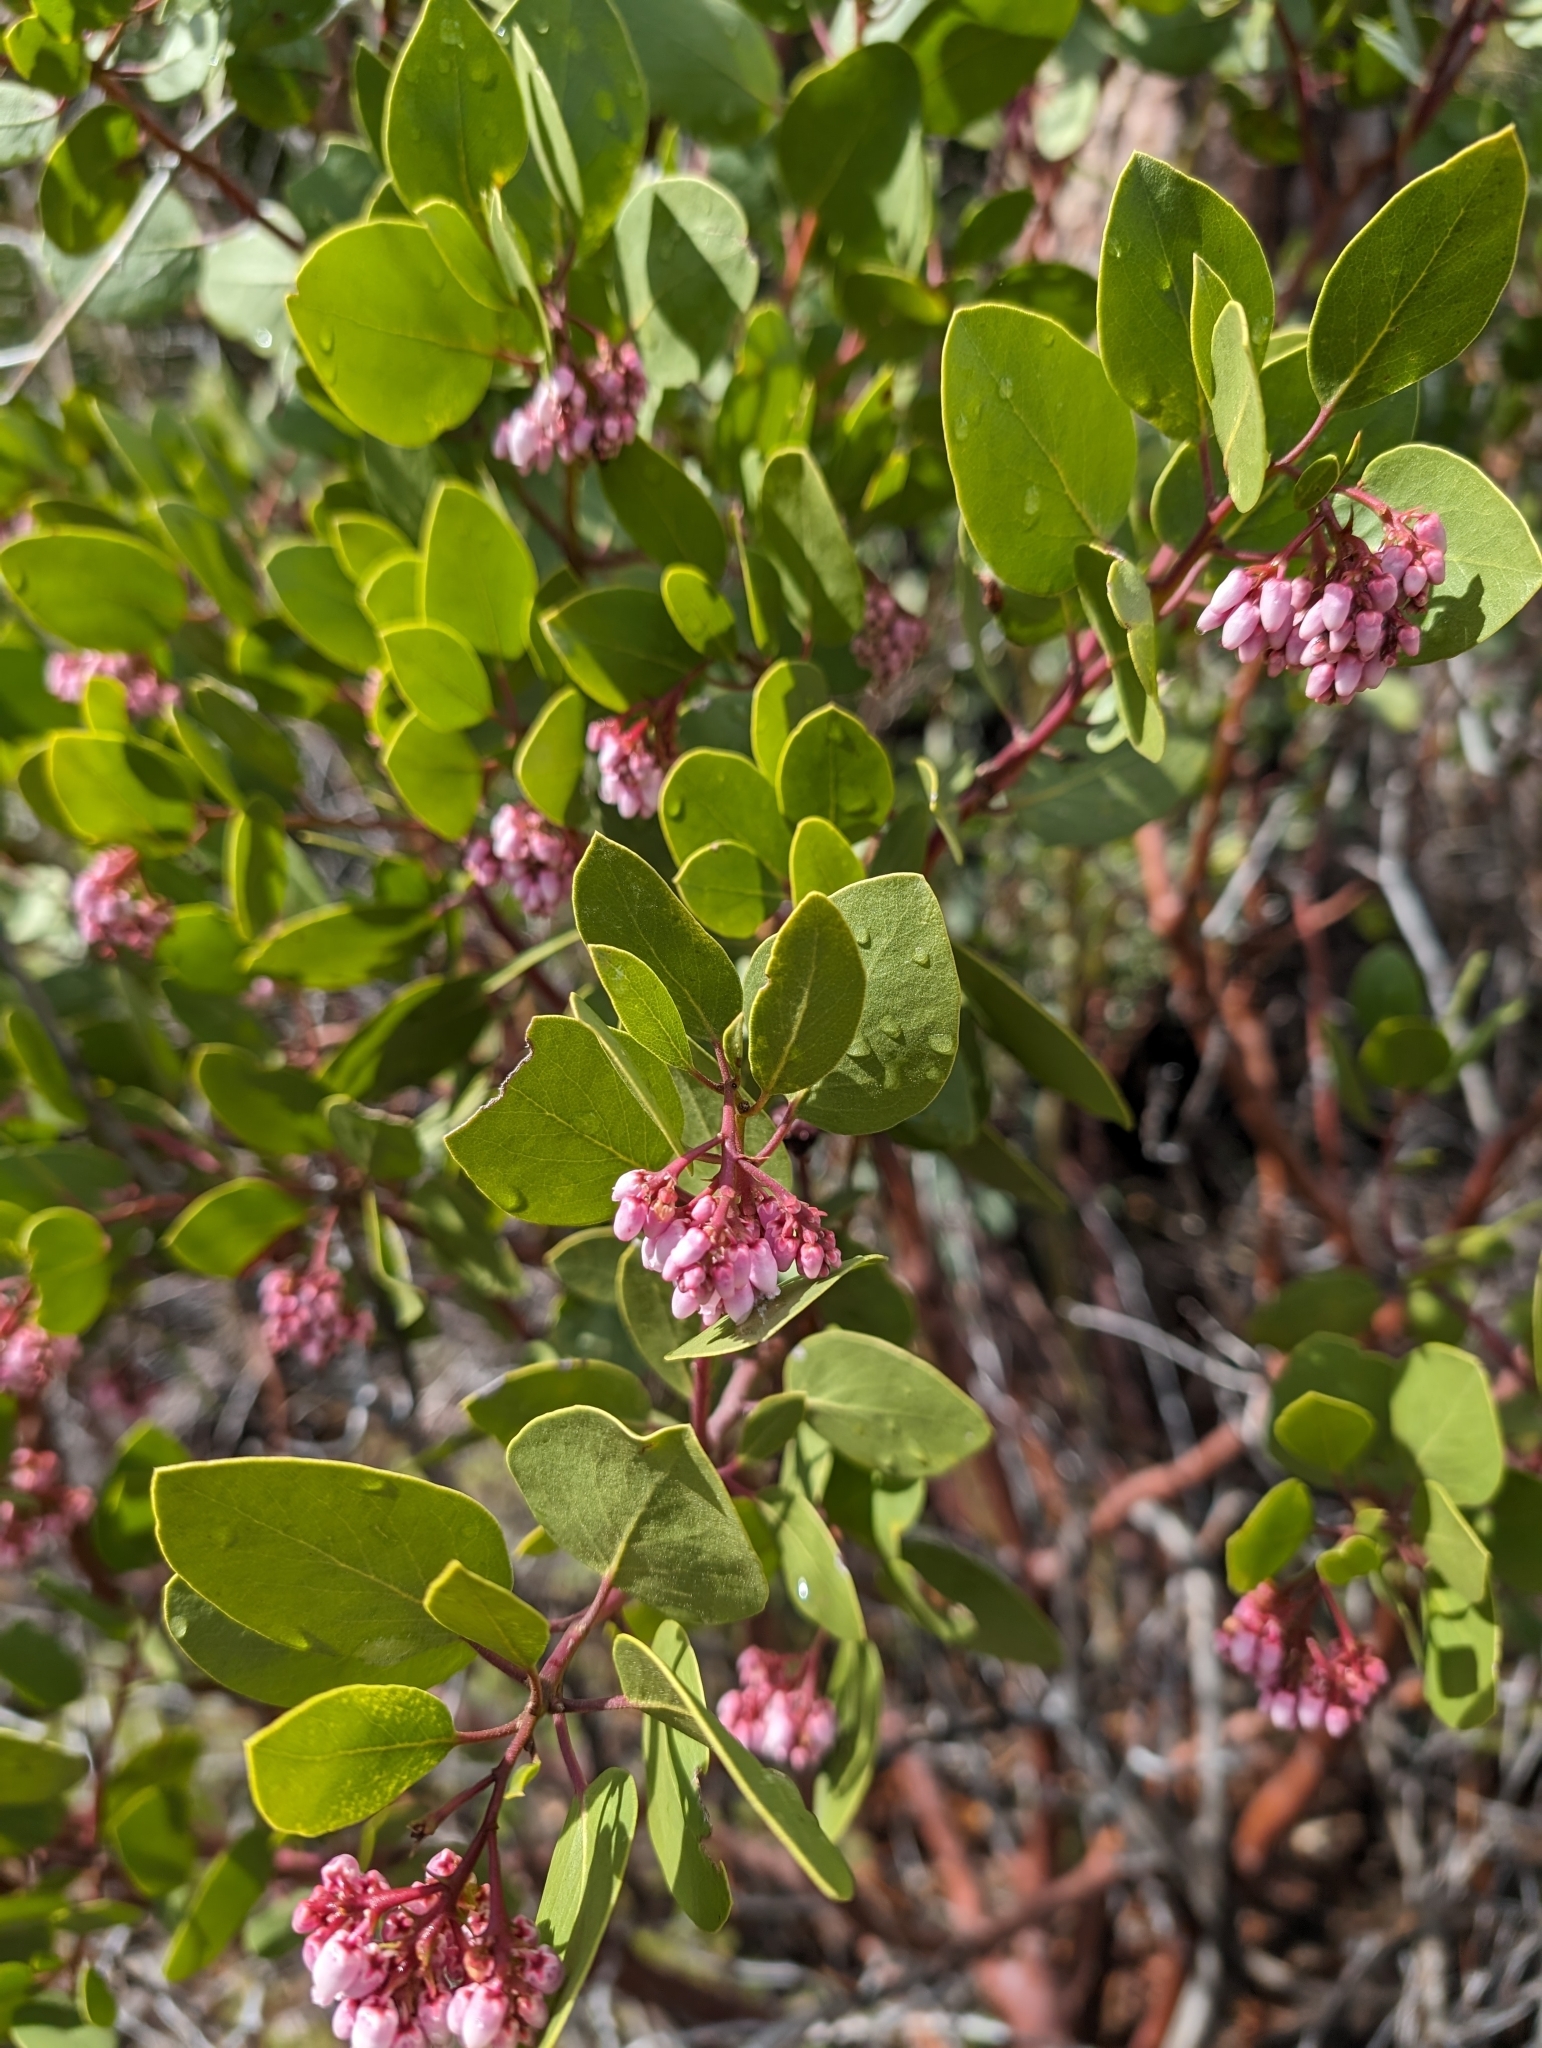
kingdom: Plantae
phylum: Tracheophyta
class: Magnoliopsida
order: Ericales
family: Ericaceae
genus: Arctostaphylos
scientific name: Arctostaphylos patula
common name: Green-leaf manzanita
